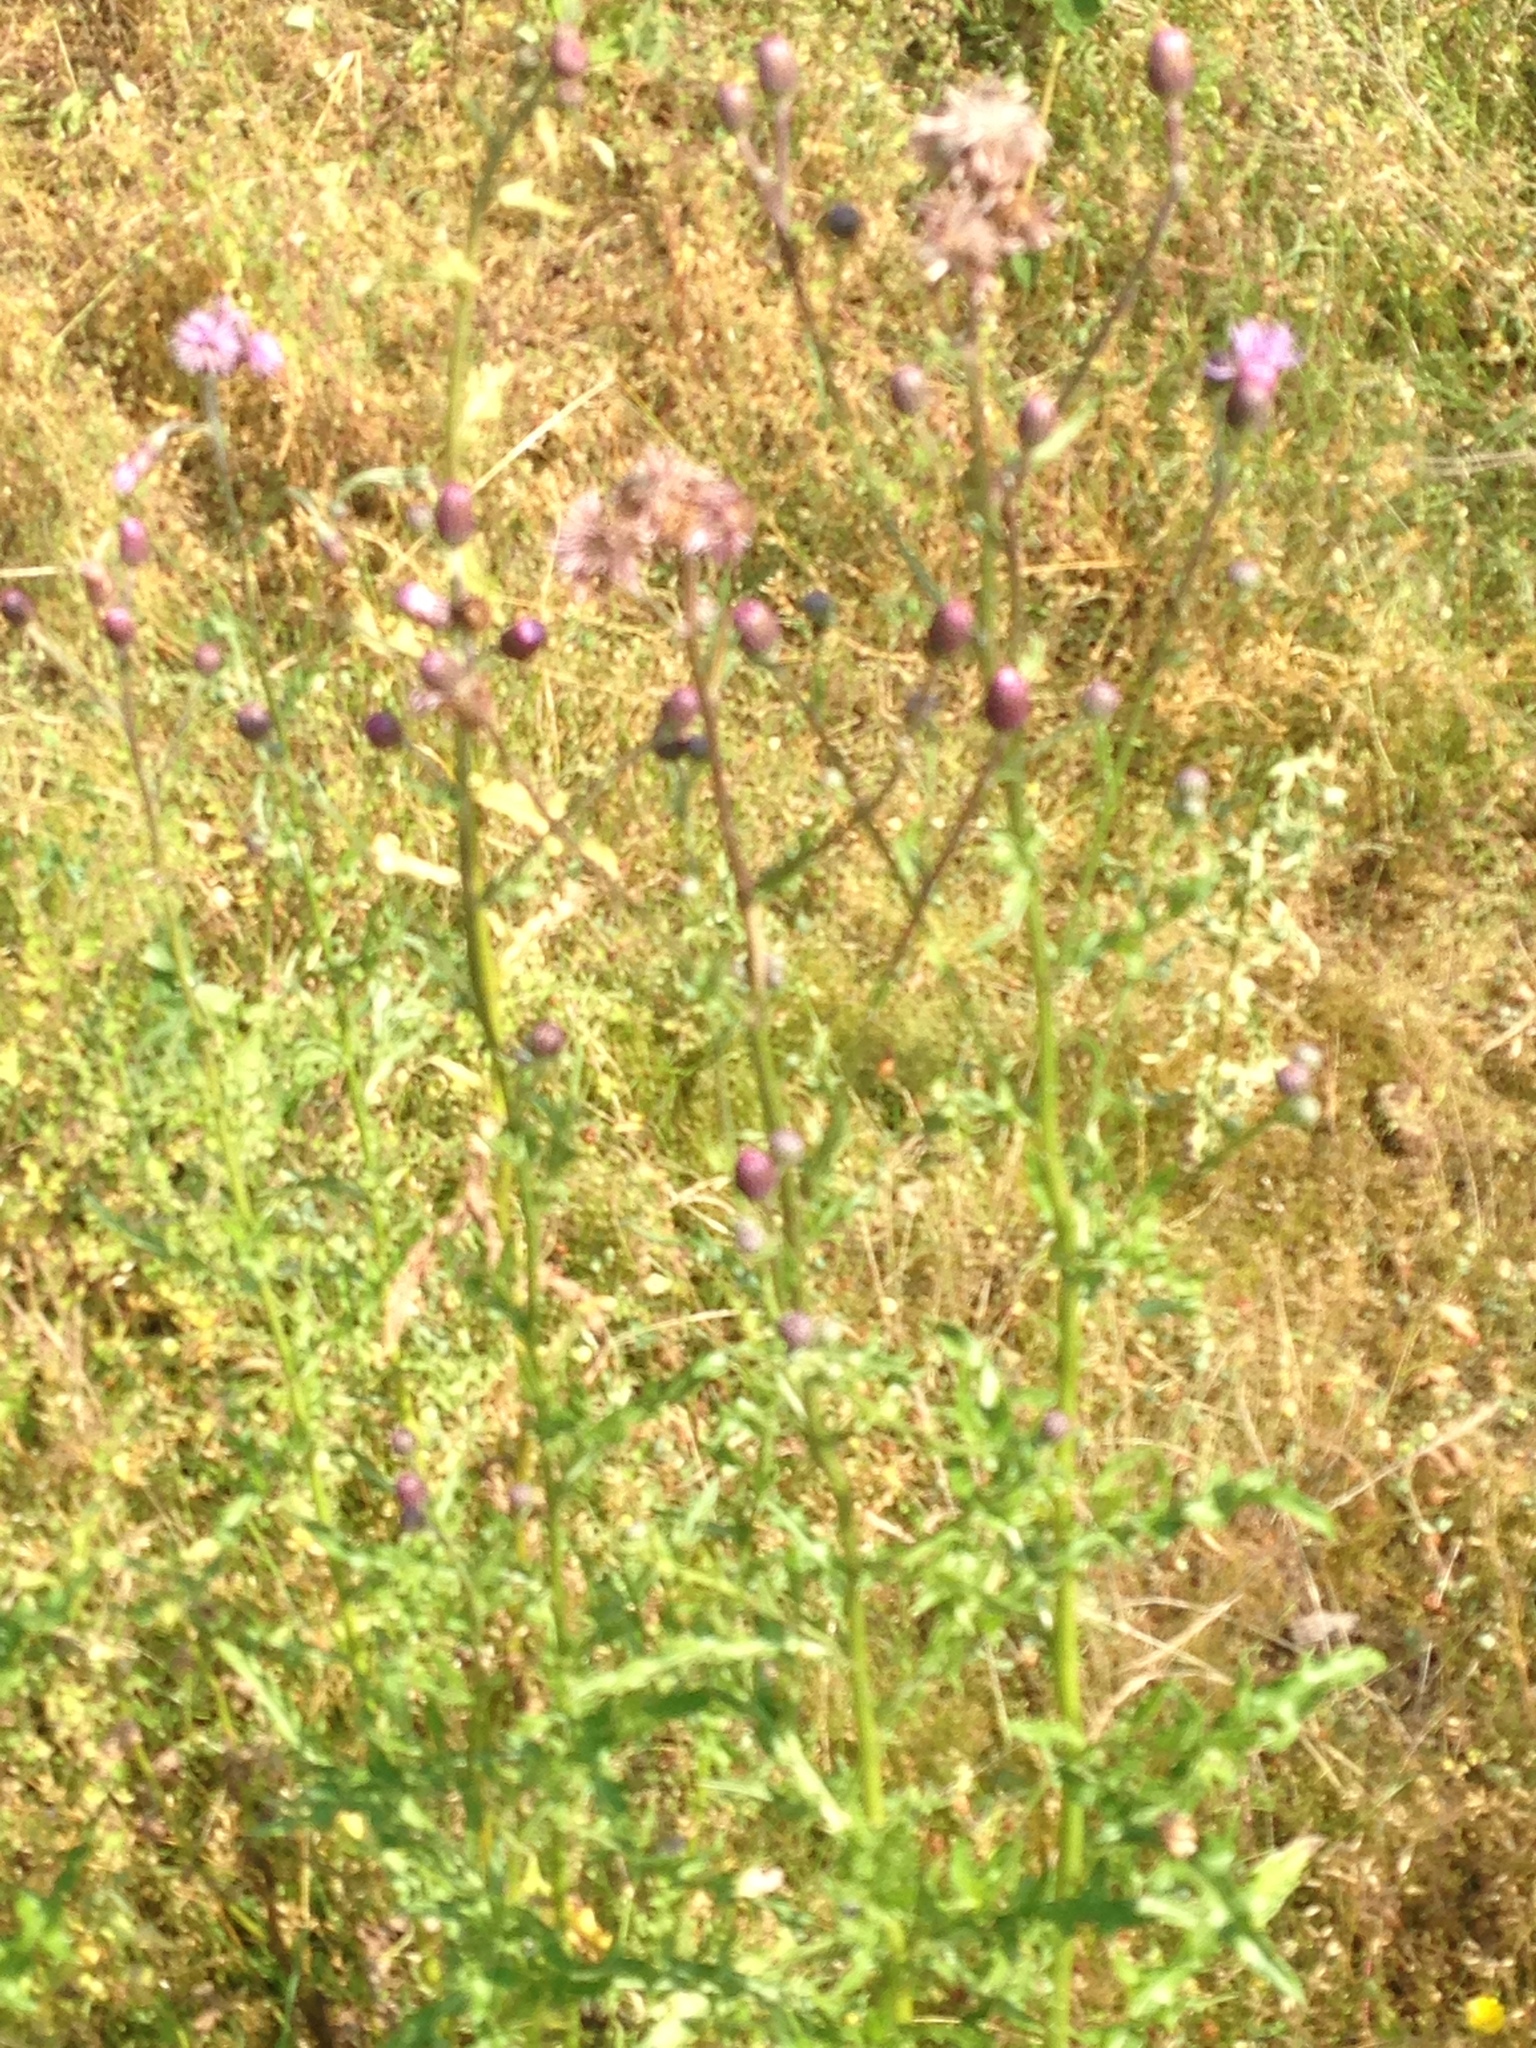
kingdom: Plantae
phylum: Tracheophyta
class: Magnoliopsida
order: Asterales
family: Asteraceae
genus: Cirsium
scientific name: Cirsium arvense
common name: Creeping thistle
